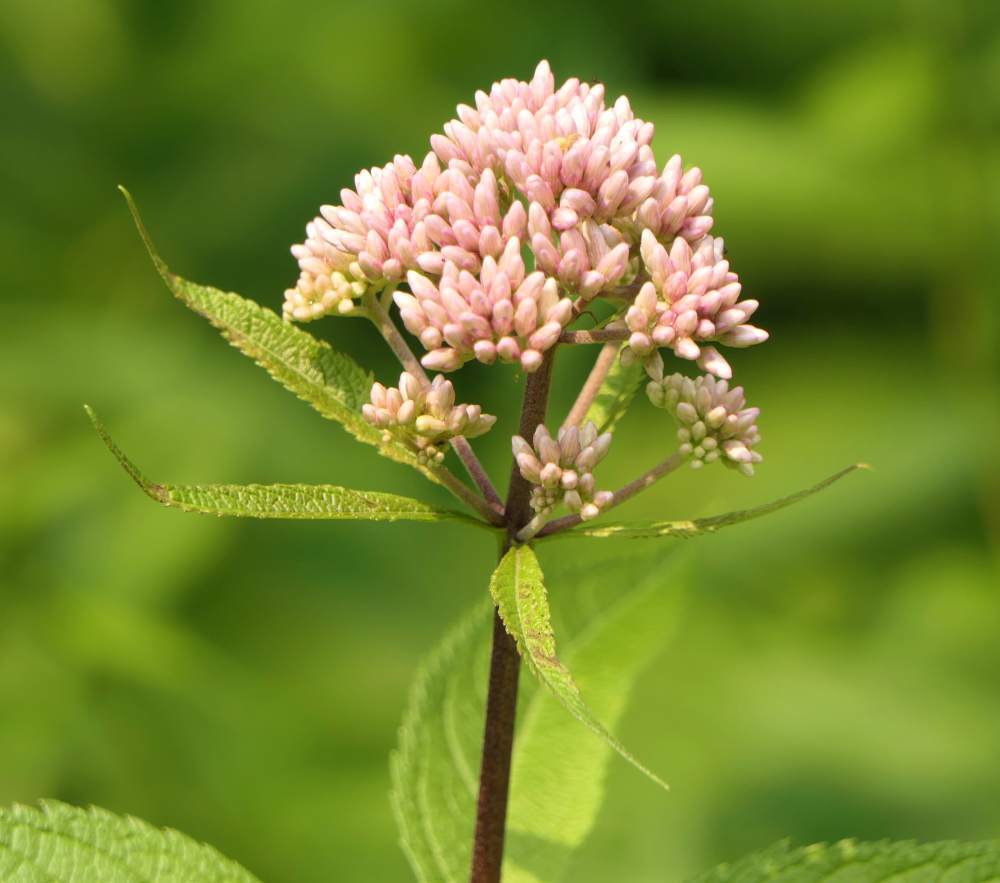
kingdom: Plantae
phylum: Tracheophyta
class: Magnoliopsida
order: Asterales
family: Asteraceae
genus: Eutrochium
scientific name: Eutrochium maculatum
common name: Spotted joe pye weed
